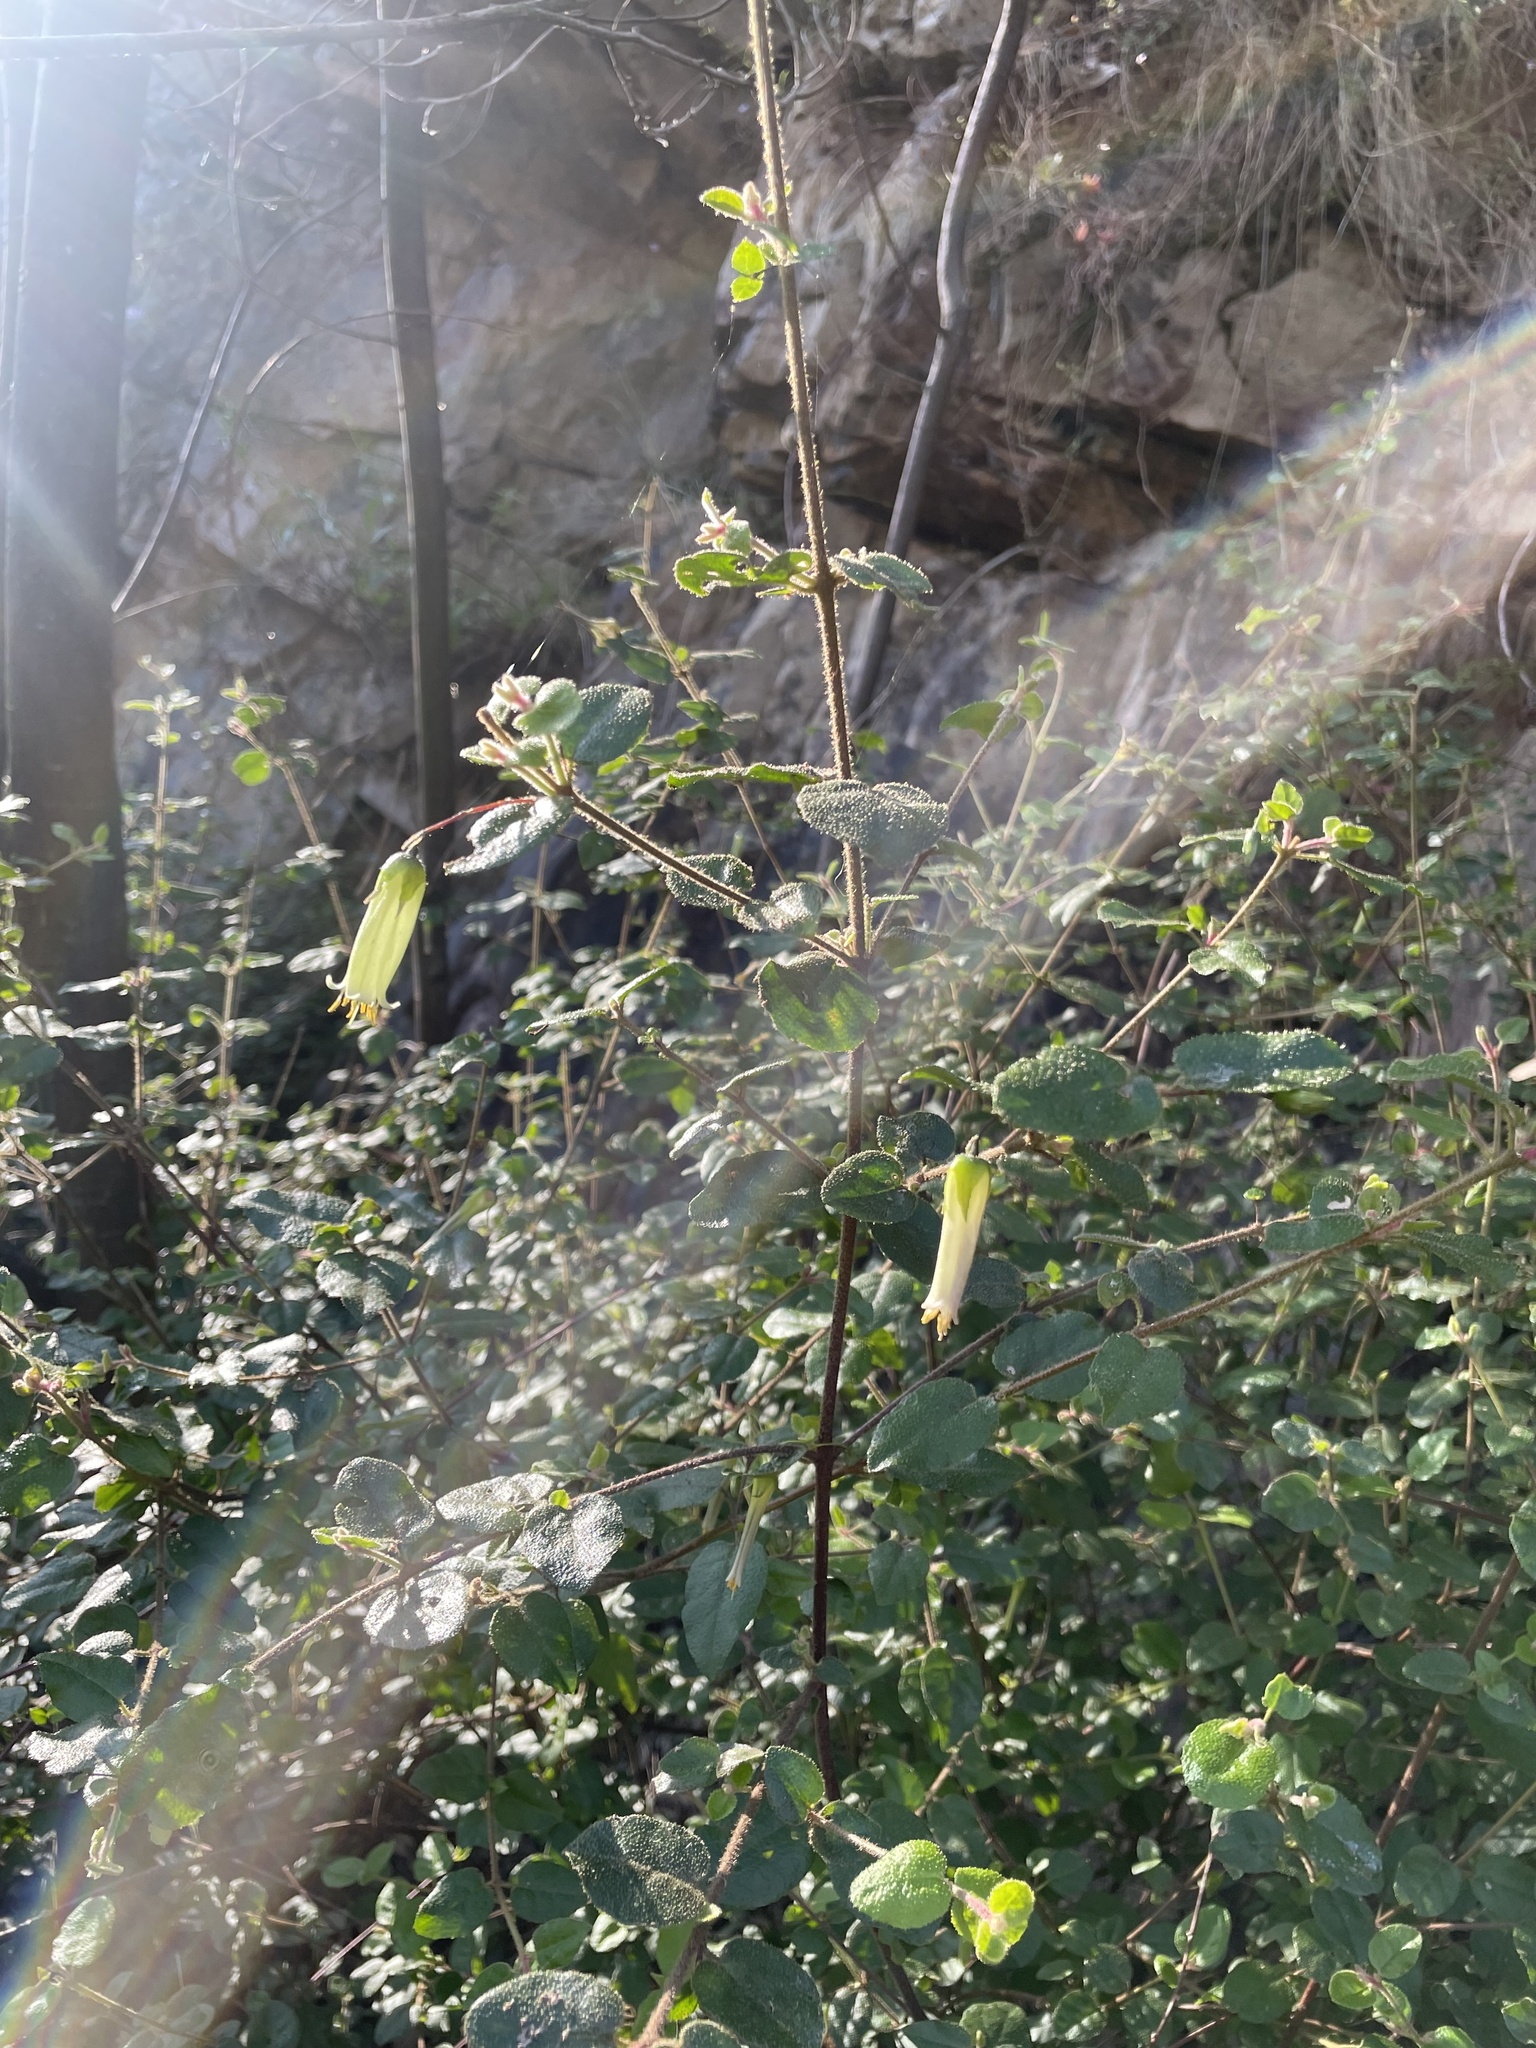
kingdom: Plantae
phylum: Tracheophyta
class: Magnoliopsida
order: Sapindales
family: Rutaceae
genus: Correa
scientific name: Correa aemula
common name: Hairy correa
